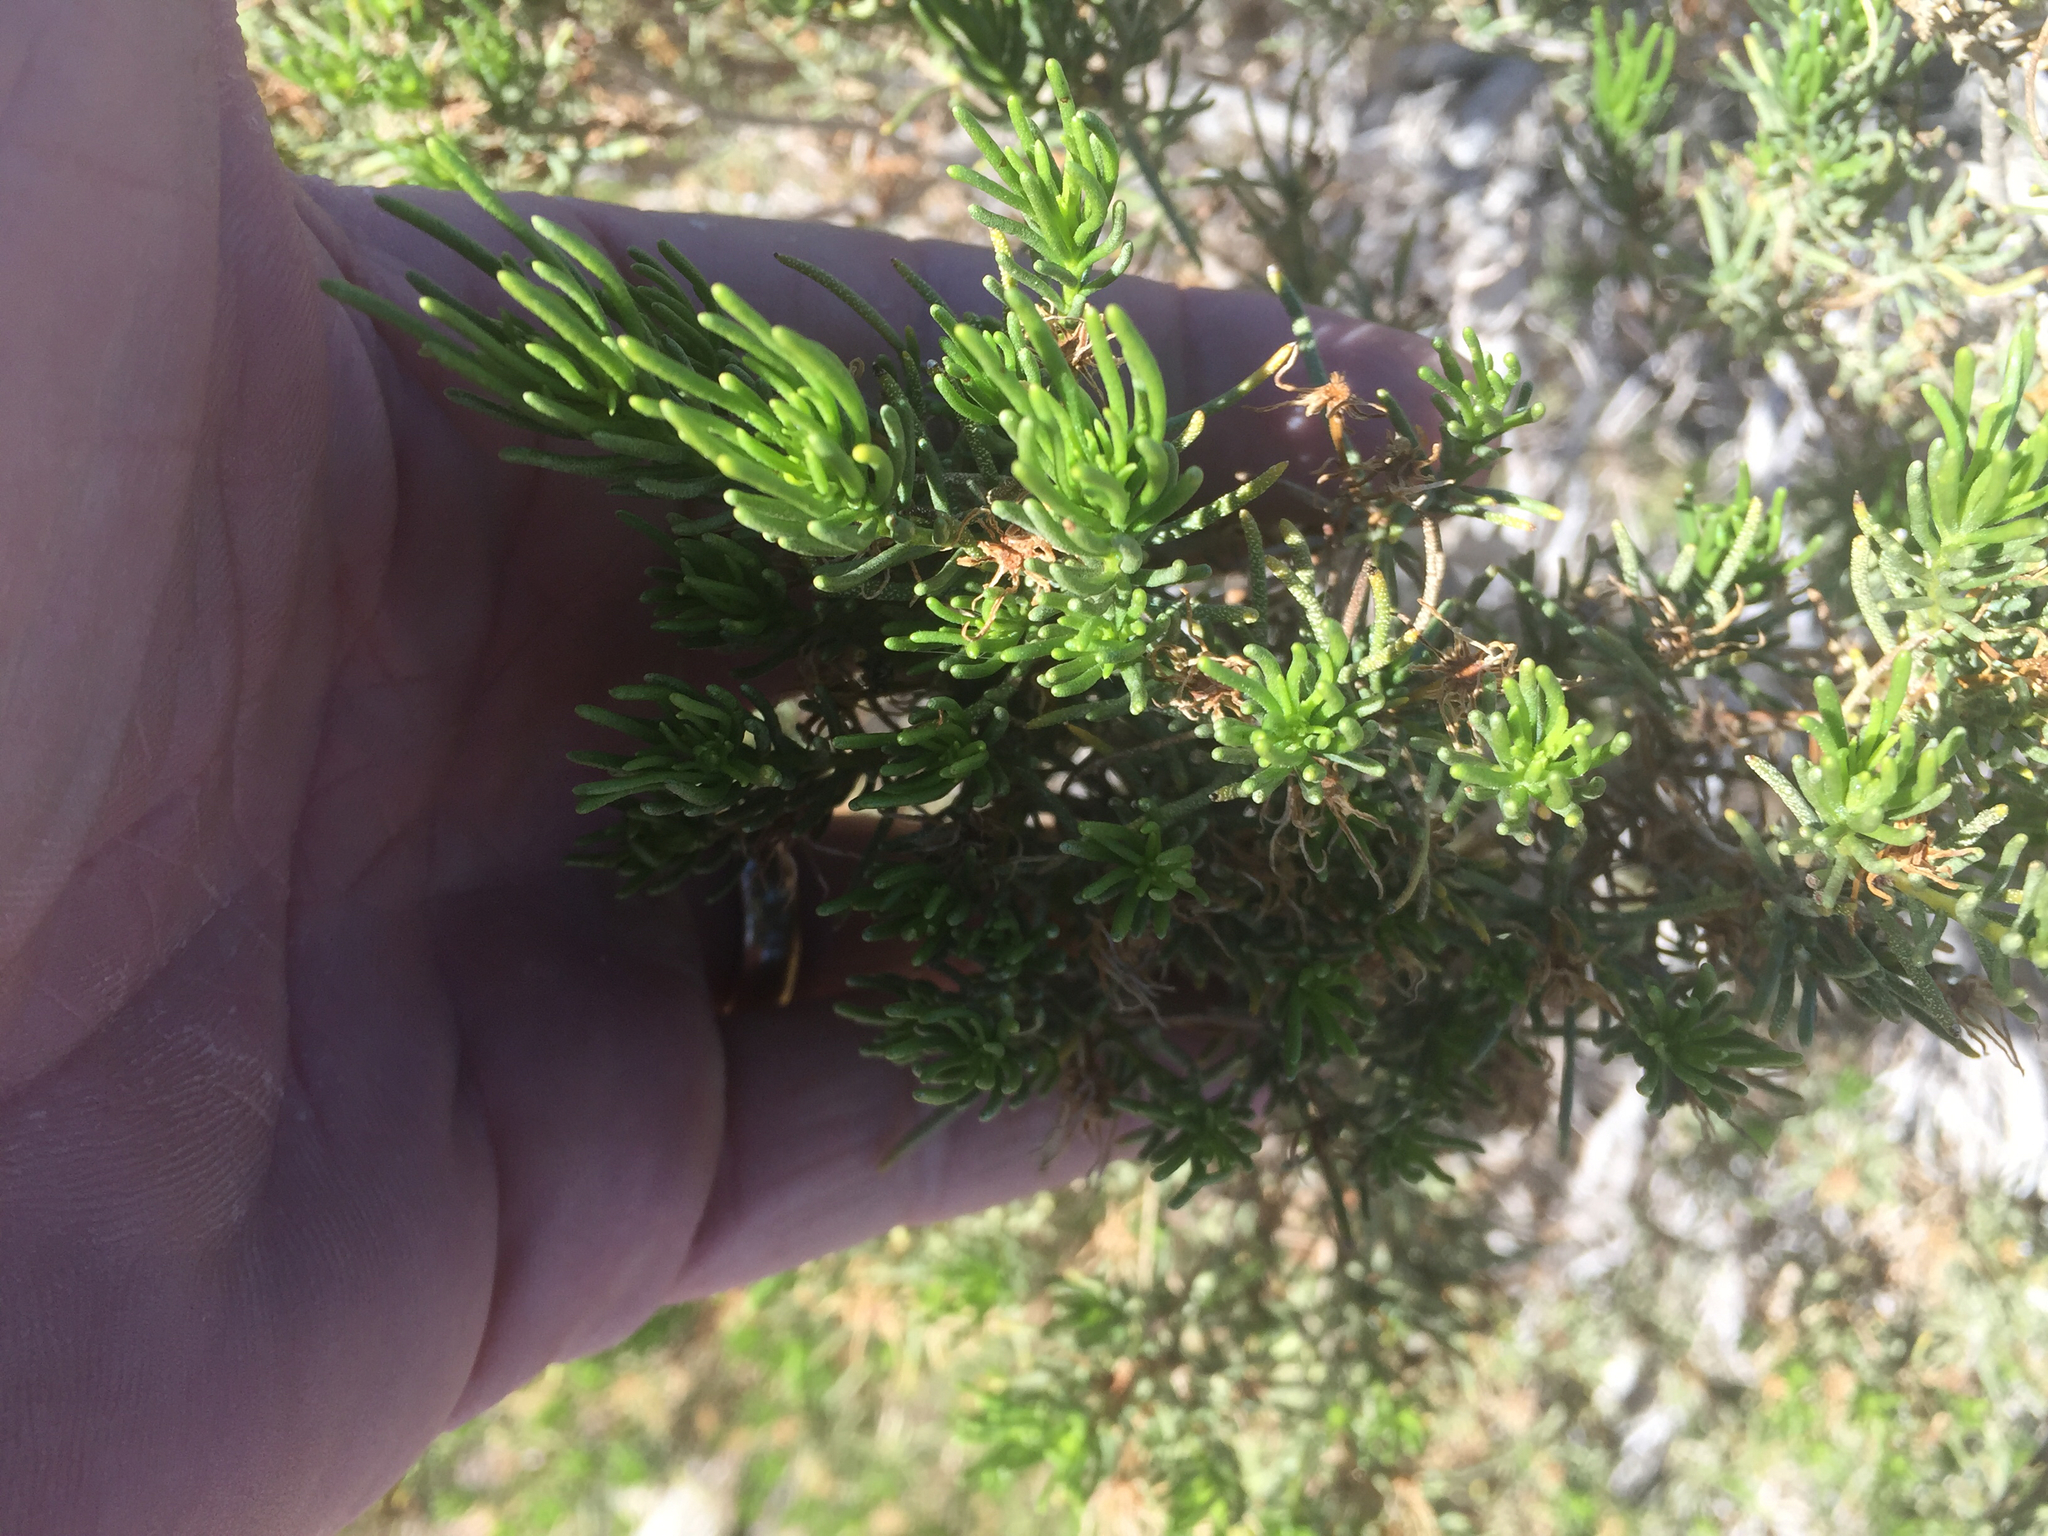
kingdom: Plantae
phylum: Tracheophyta
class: Magnoliopsida
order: Asterales
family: Asteraceae
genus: Peucephyllum
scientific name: Peucephyllum schottii
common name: Pygmy-cedar
